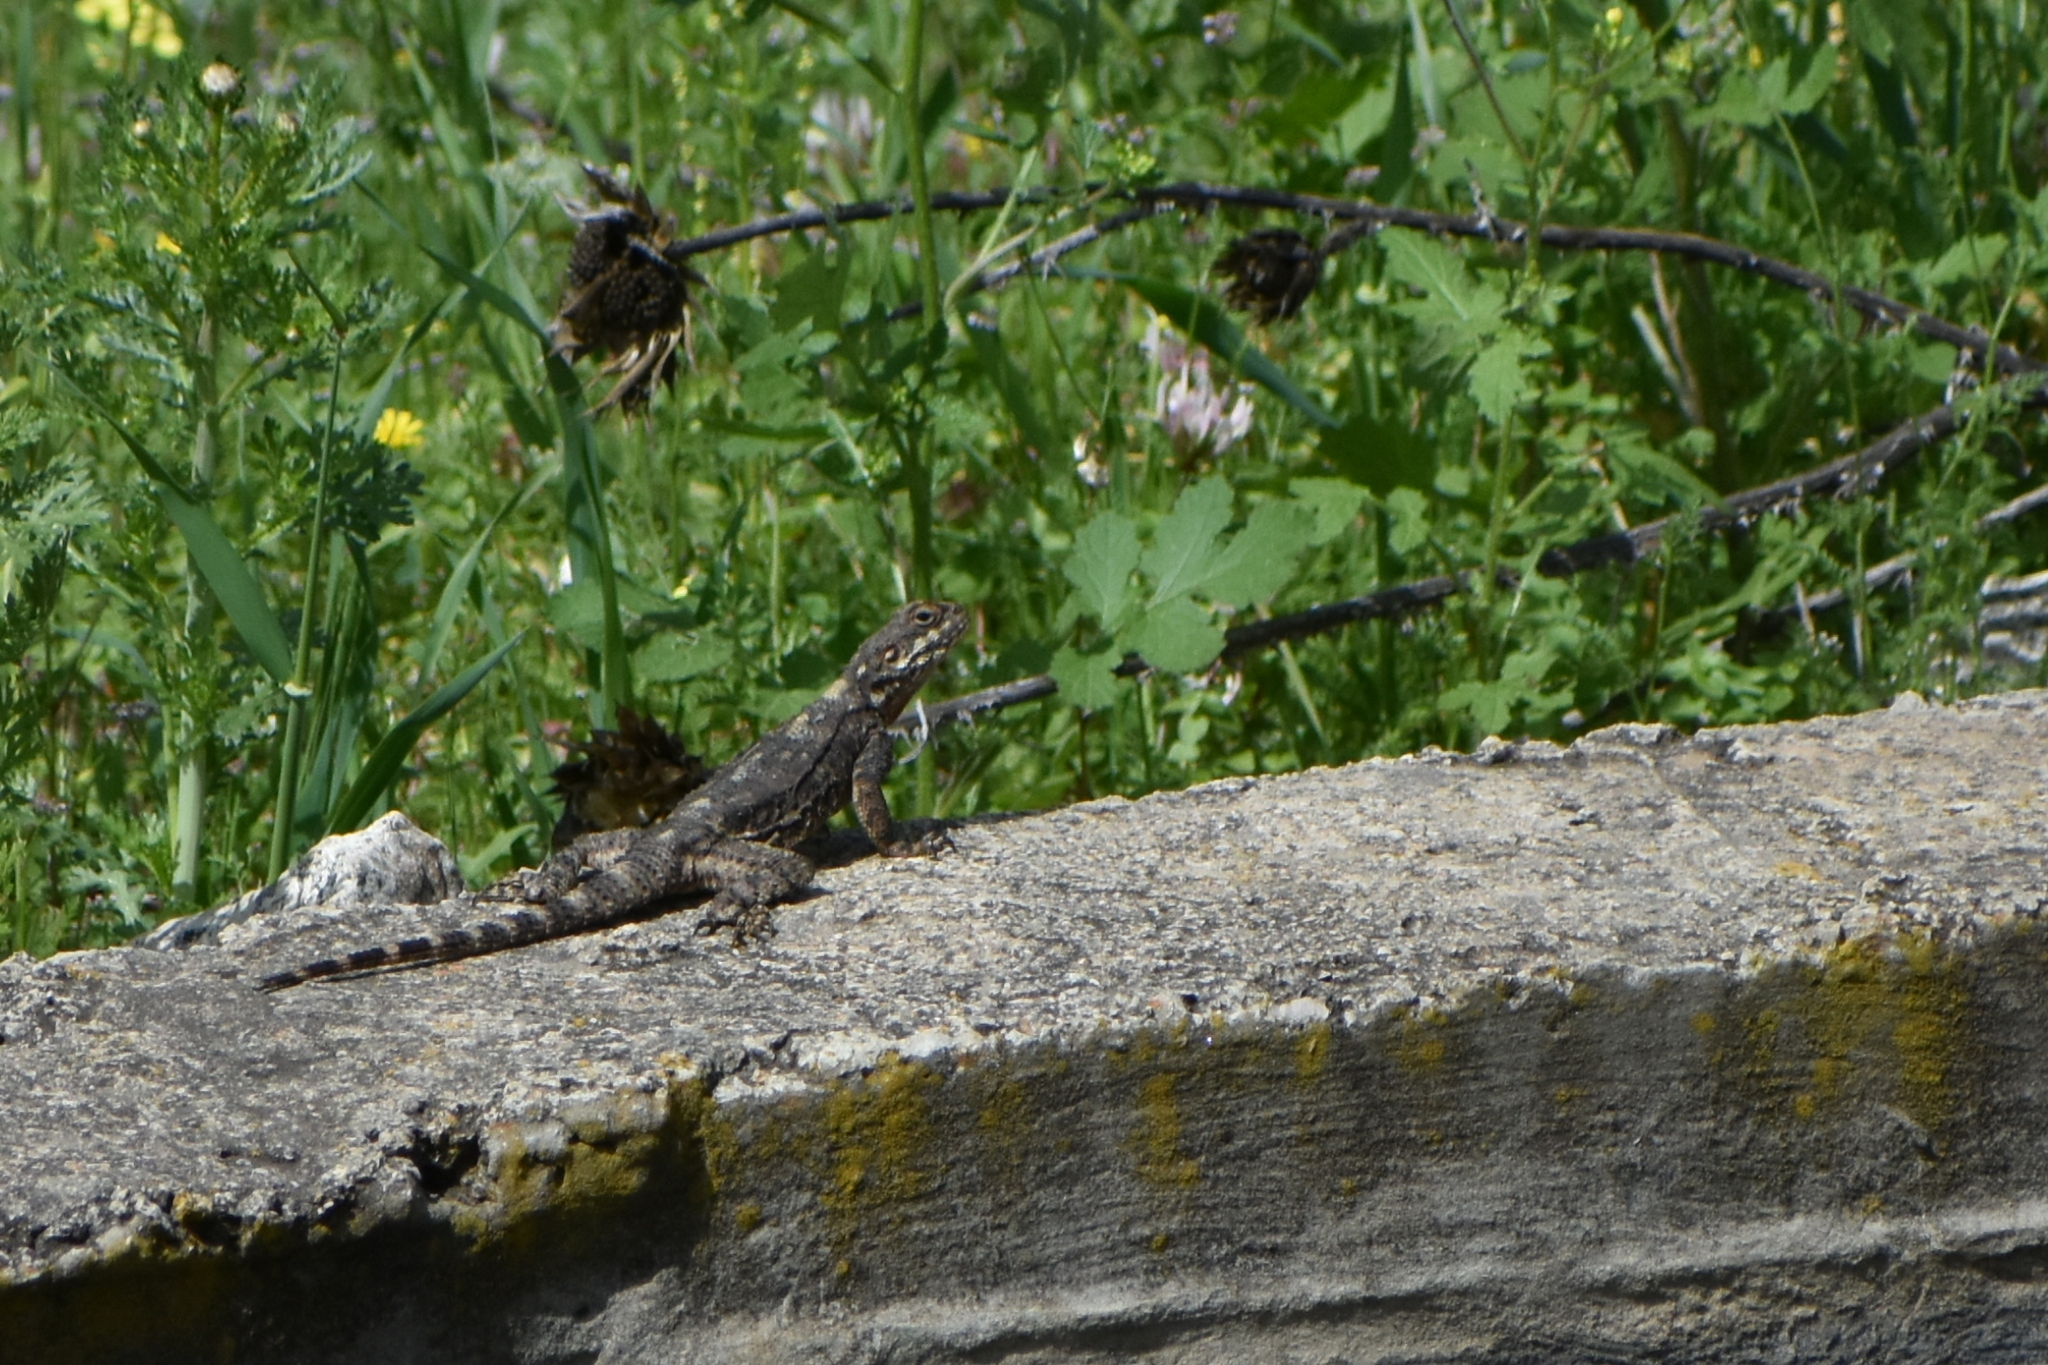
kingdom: Animalia
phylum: Chordata
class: Squamata
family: Agamidae
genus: Laudakia
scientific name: Laudakia vulgaris
